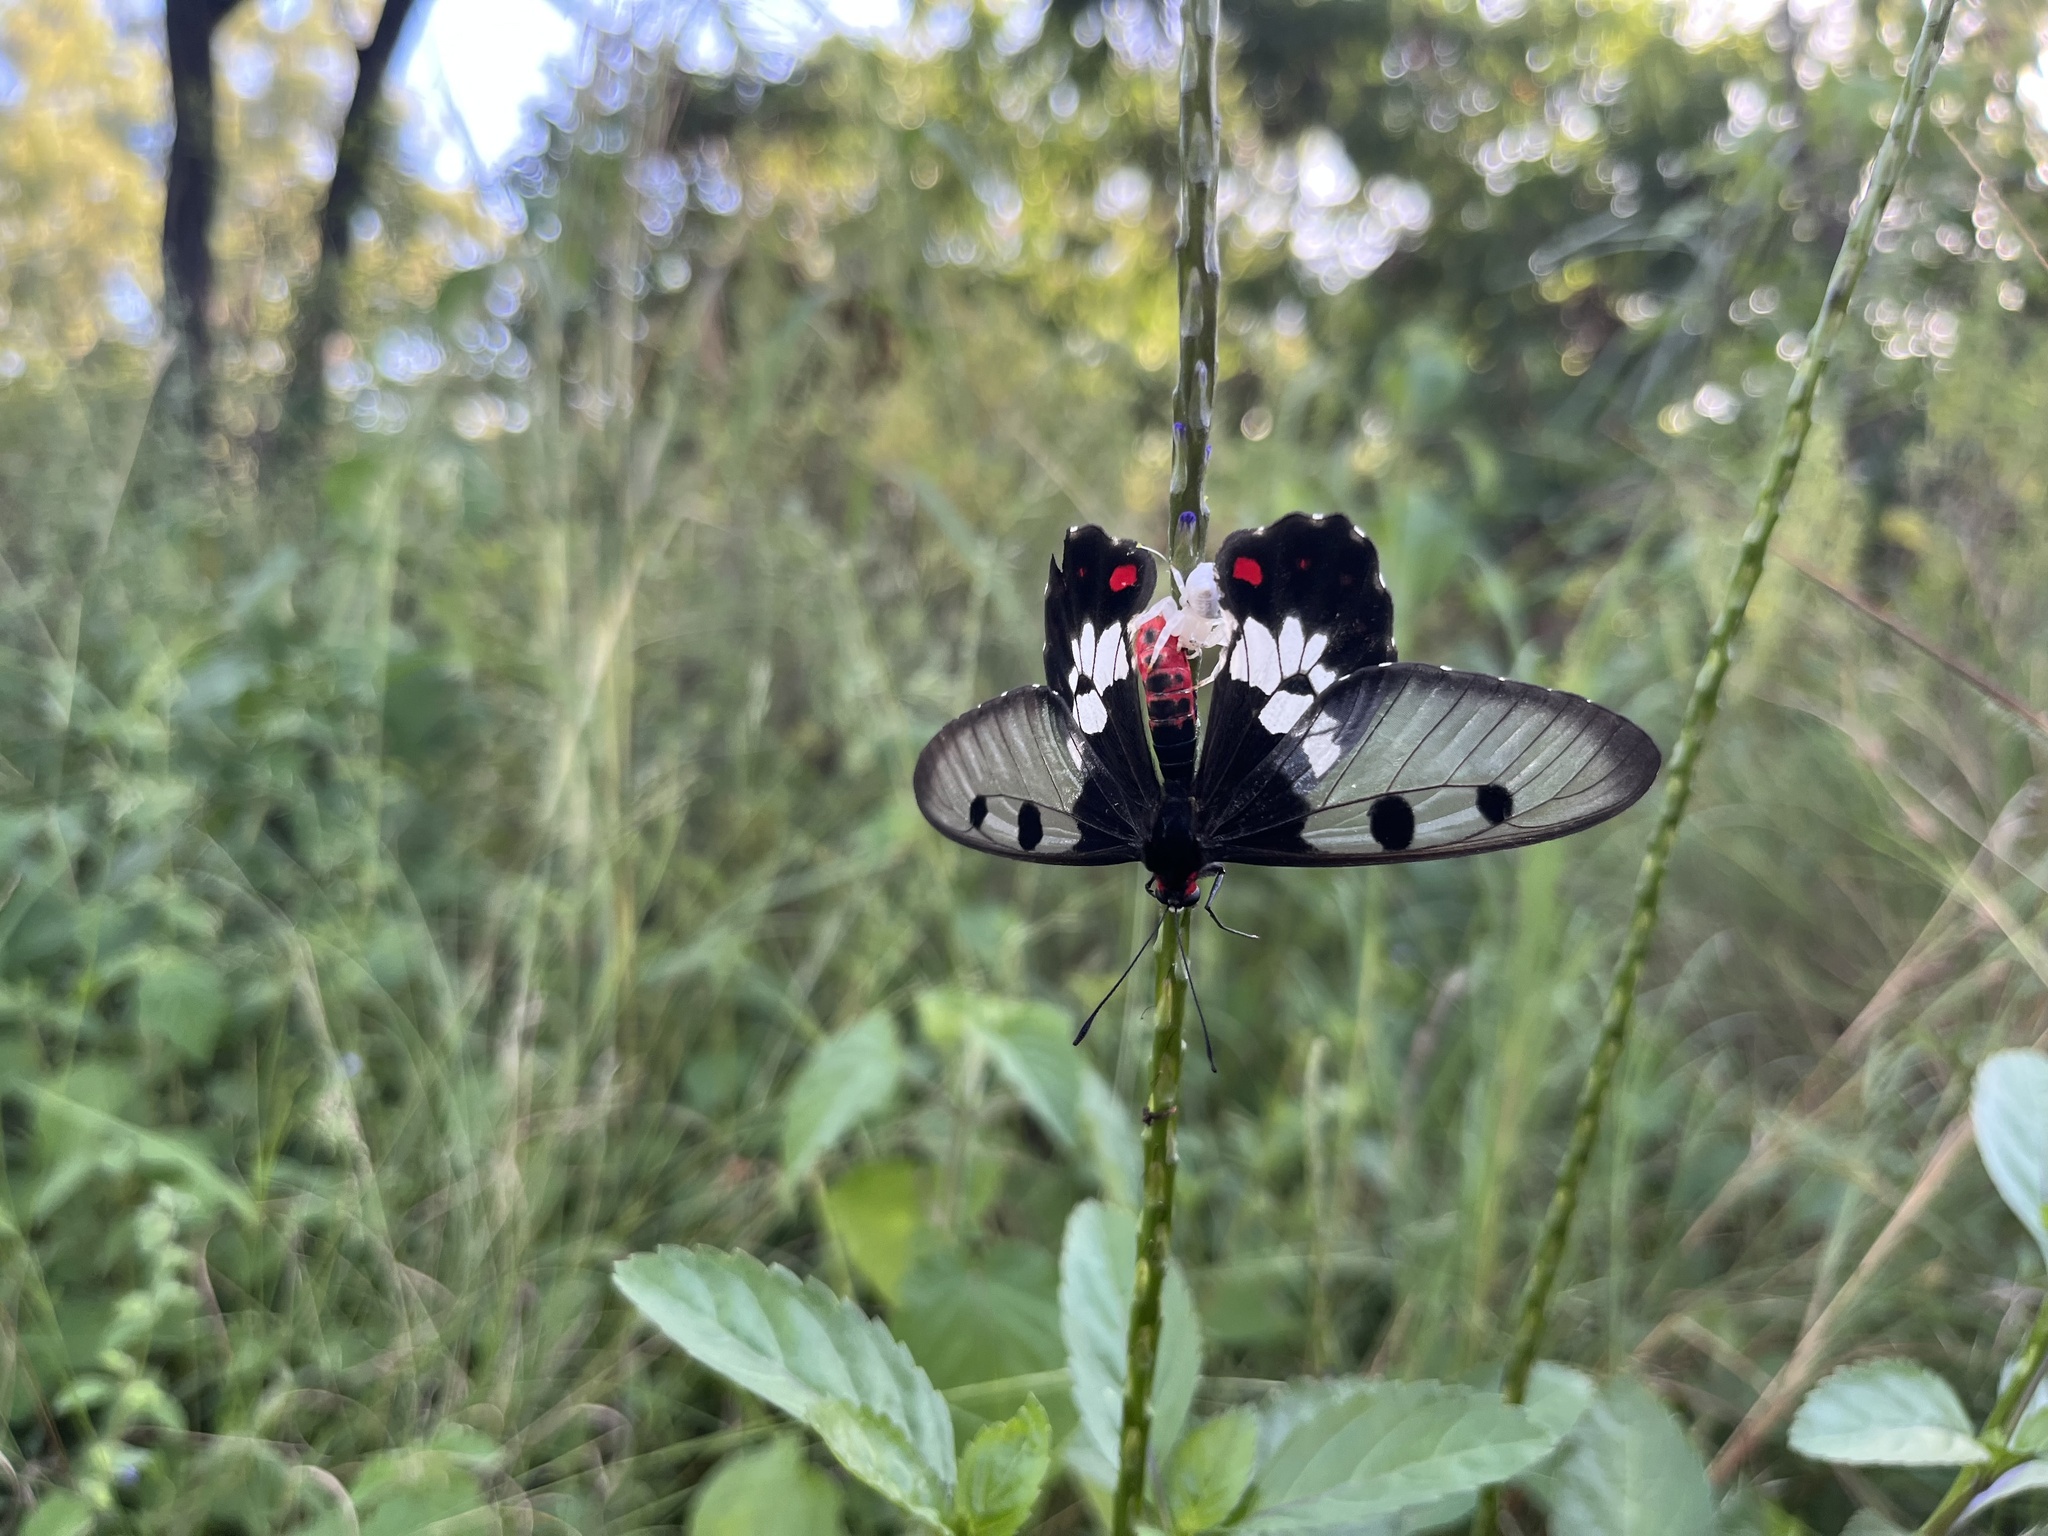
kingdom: Animalia
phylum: Arthropoda
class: Insecta
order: Lepidoptera
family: Papilionidae
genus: Cressida
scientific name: Cressida cressida
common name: Big greasy
